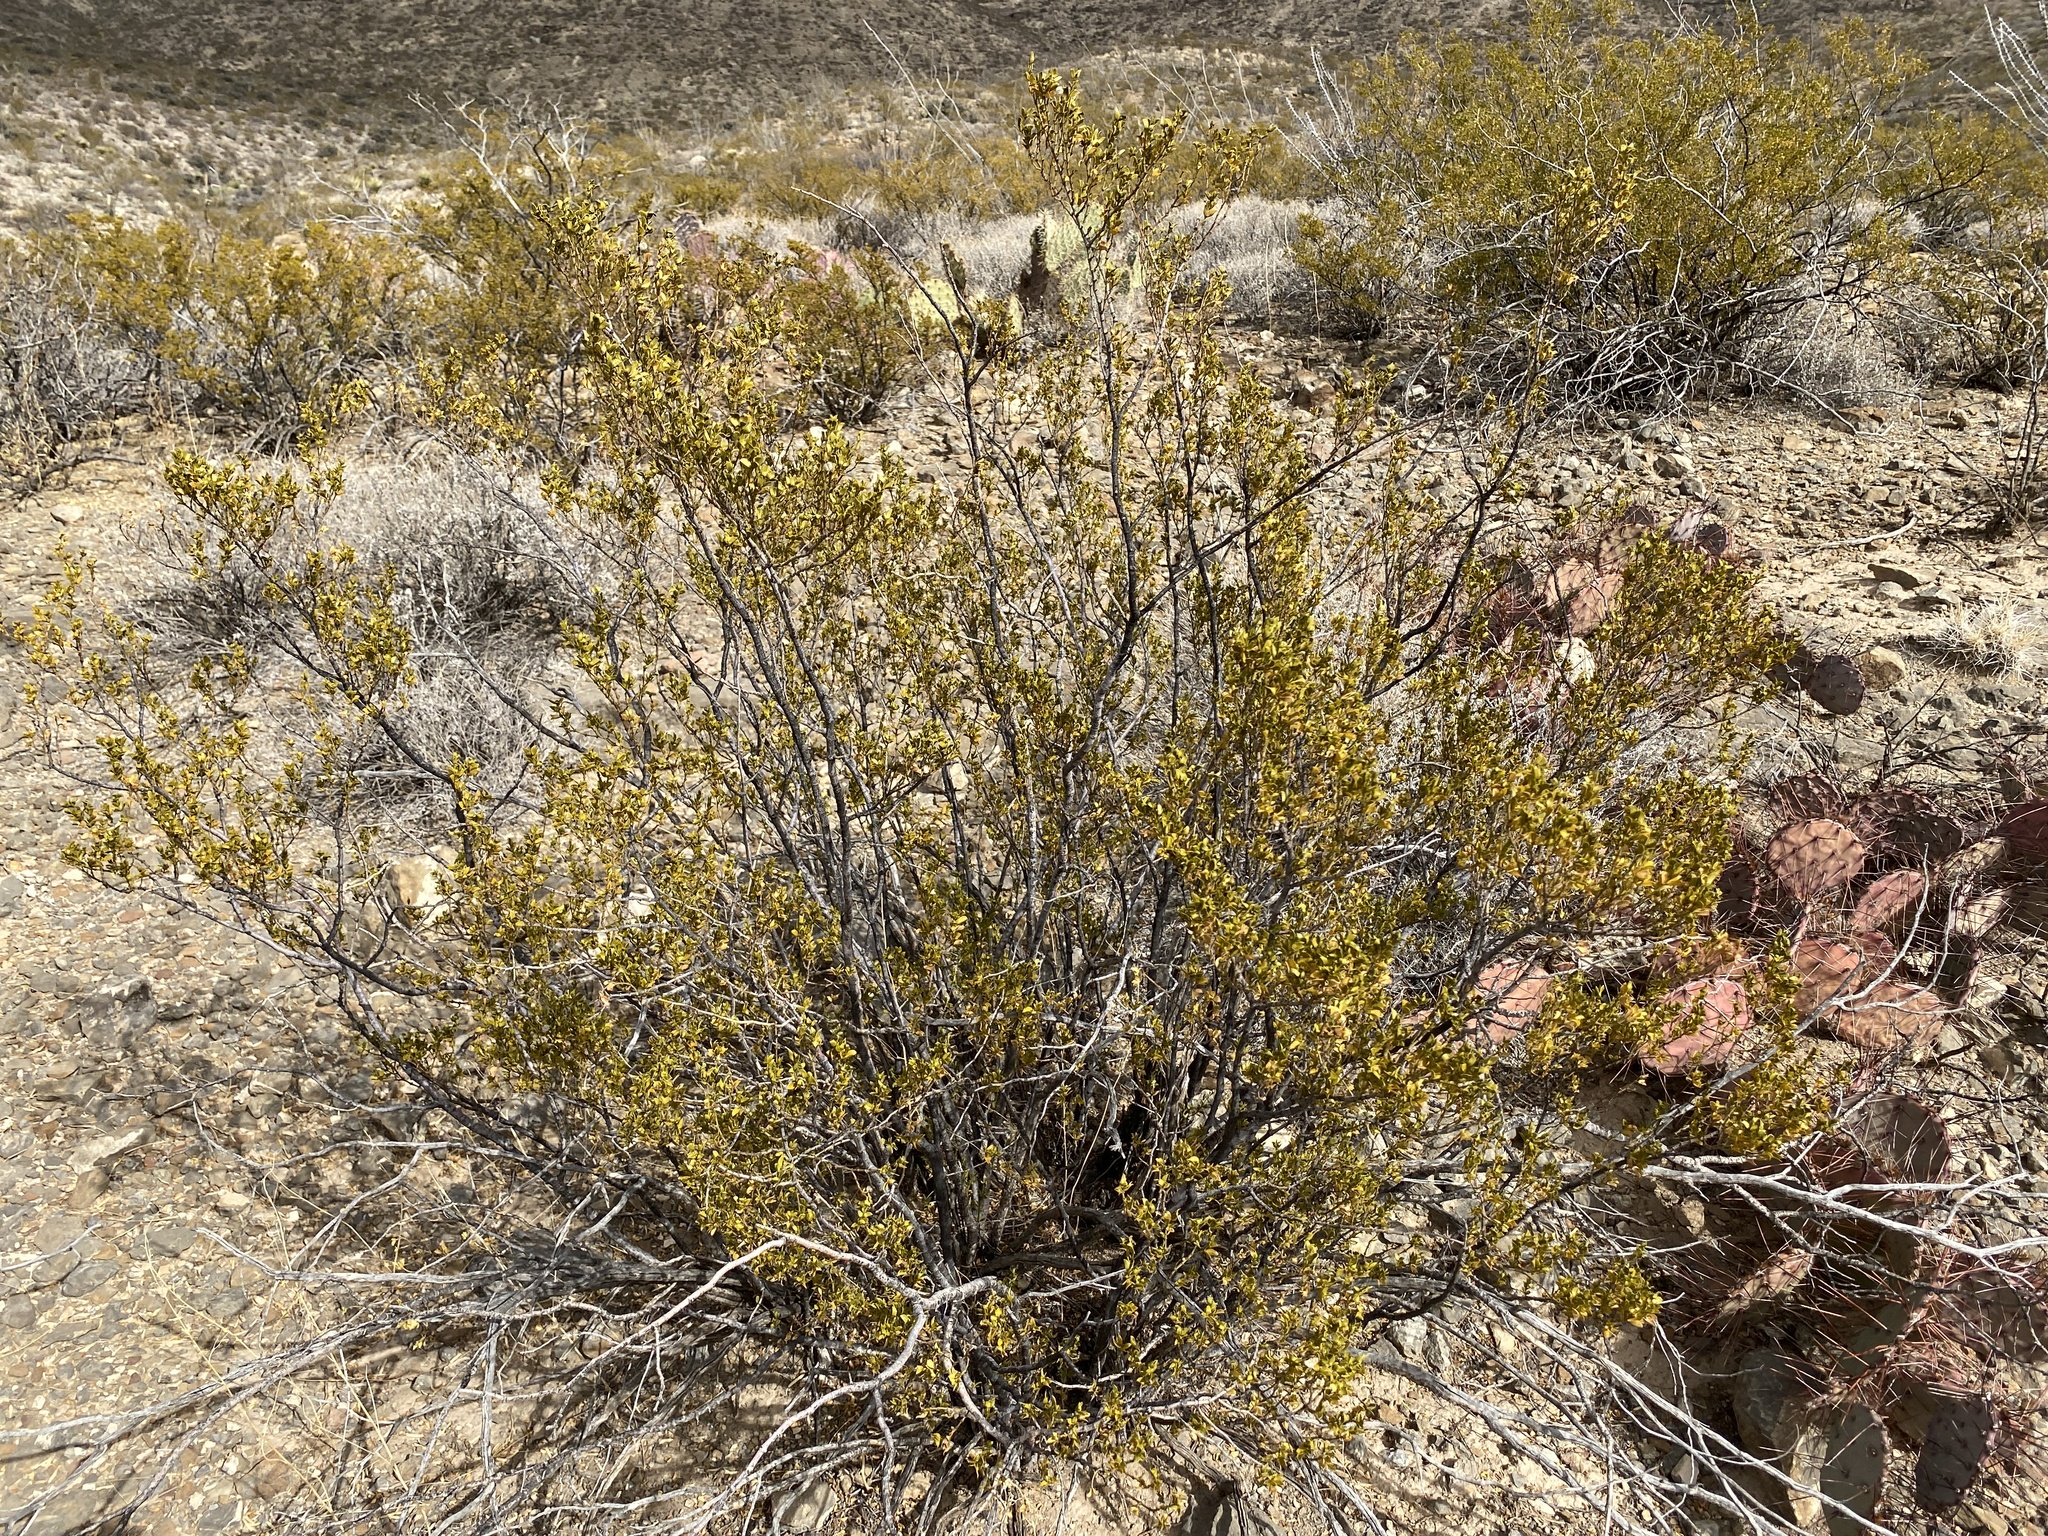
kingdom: Plantae
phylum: Tracheophyta
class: Magnoliopsida
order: Zygophyllales
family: Zygophyllaceae
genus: Larrea
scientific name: Larrea tridentata
